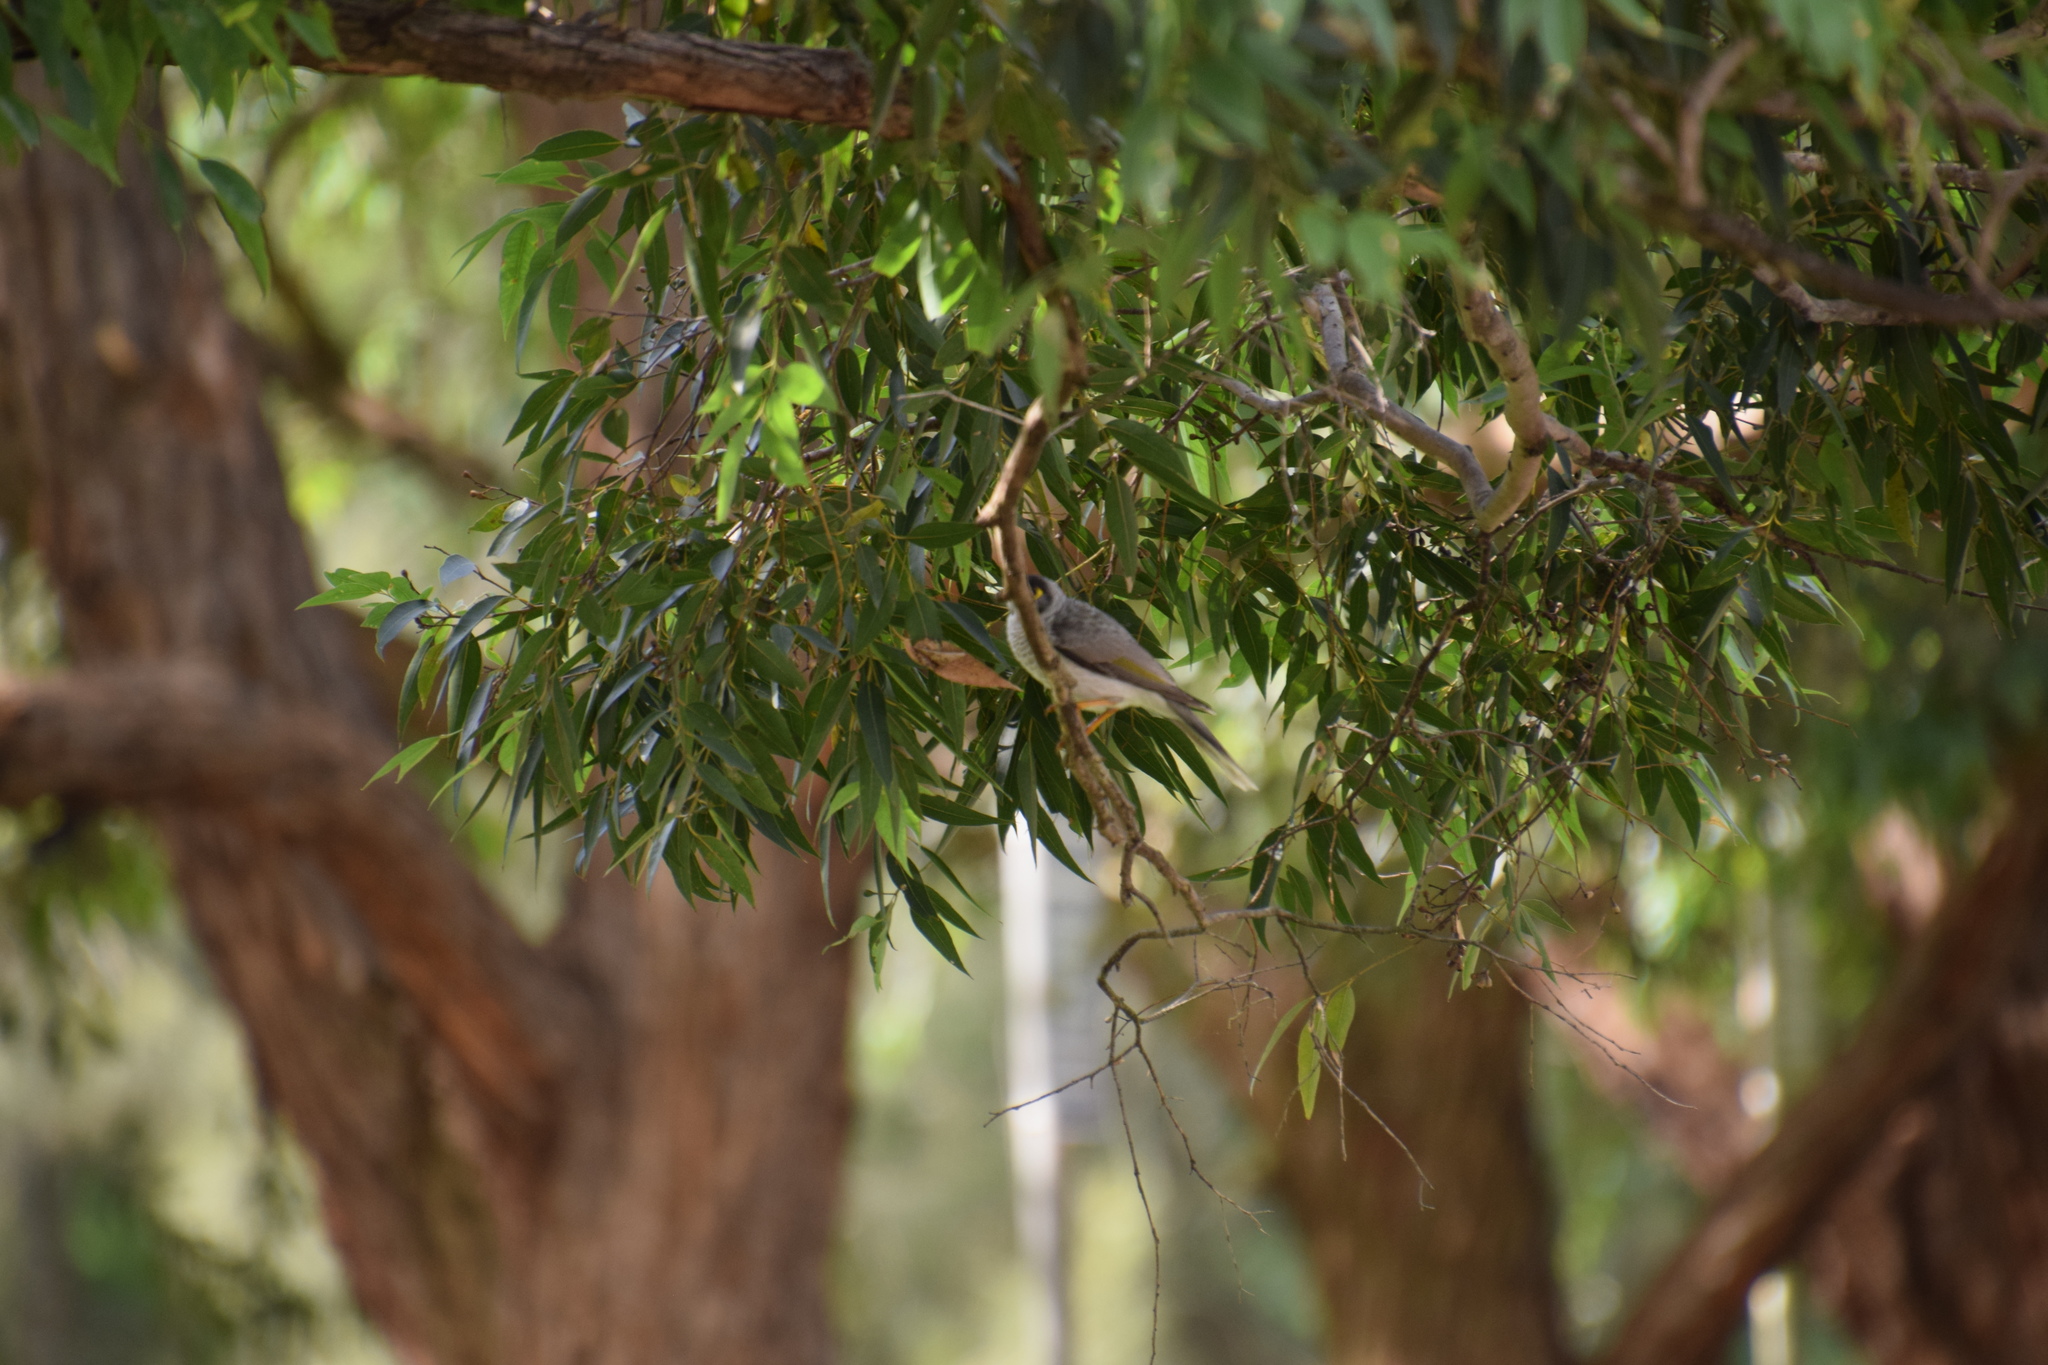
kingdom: Animalia
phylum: Chordata
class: Aves
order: Passeriformes
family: Meliphagidae
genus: Manorina
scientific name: Manorina melanocephala
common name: Noisy miner
